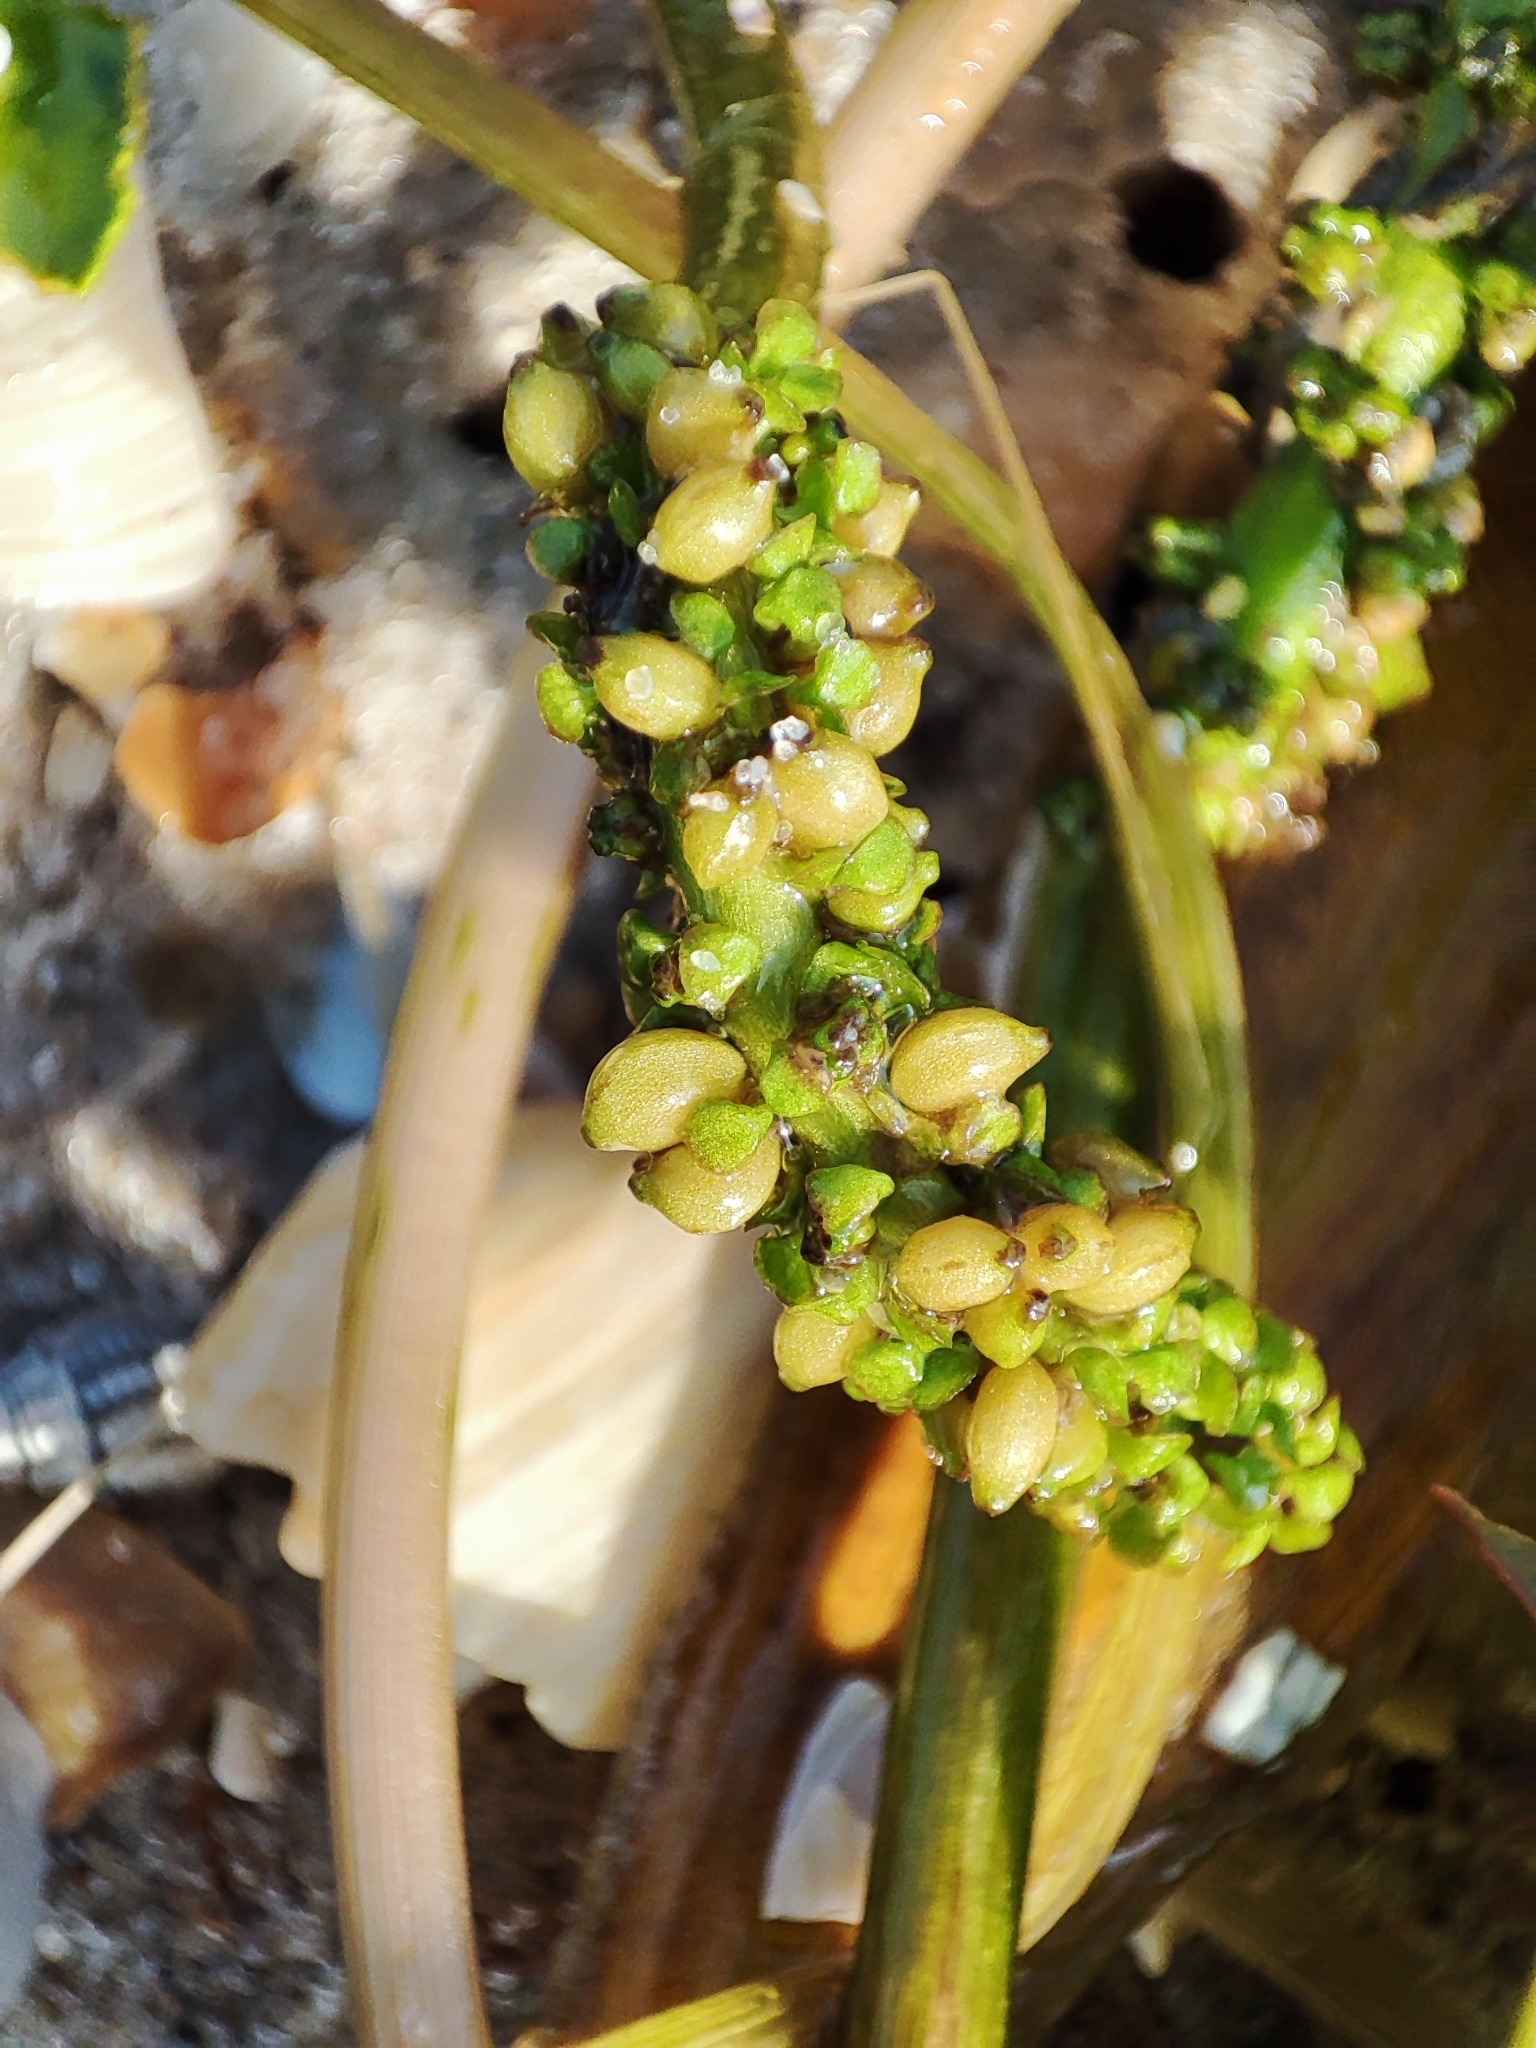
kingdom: Plantae
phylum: Tracheophyta
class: Liliopsida
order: Alismatales
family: Potamogetonaceae
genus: Potamogeton
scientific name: Potamogeton nodosus
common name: Loddon pondweed
